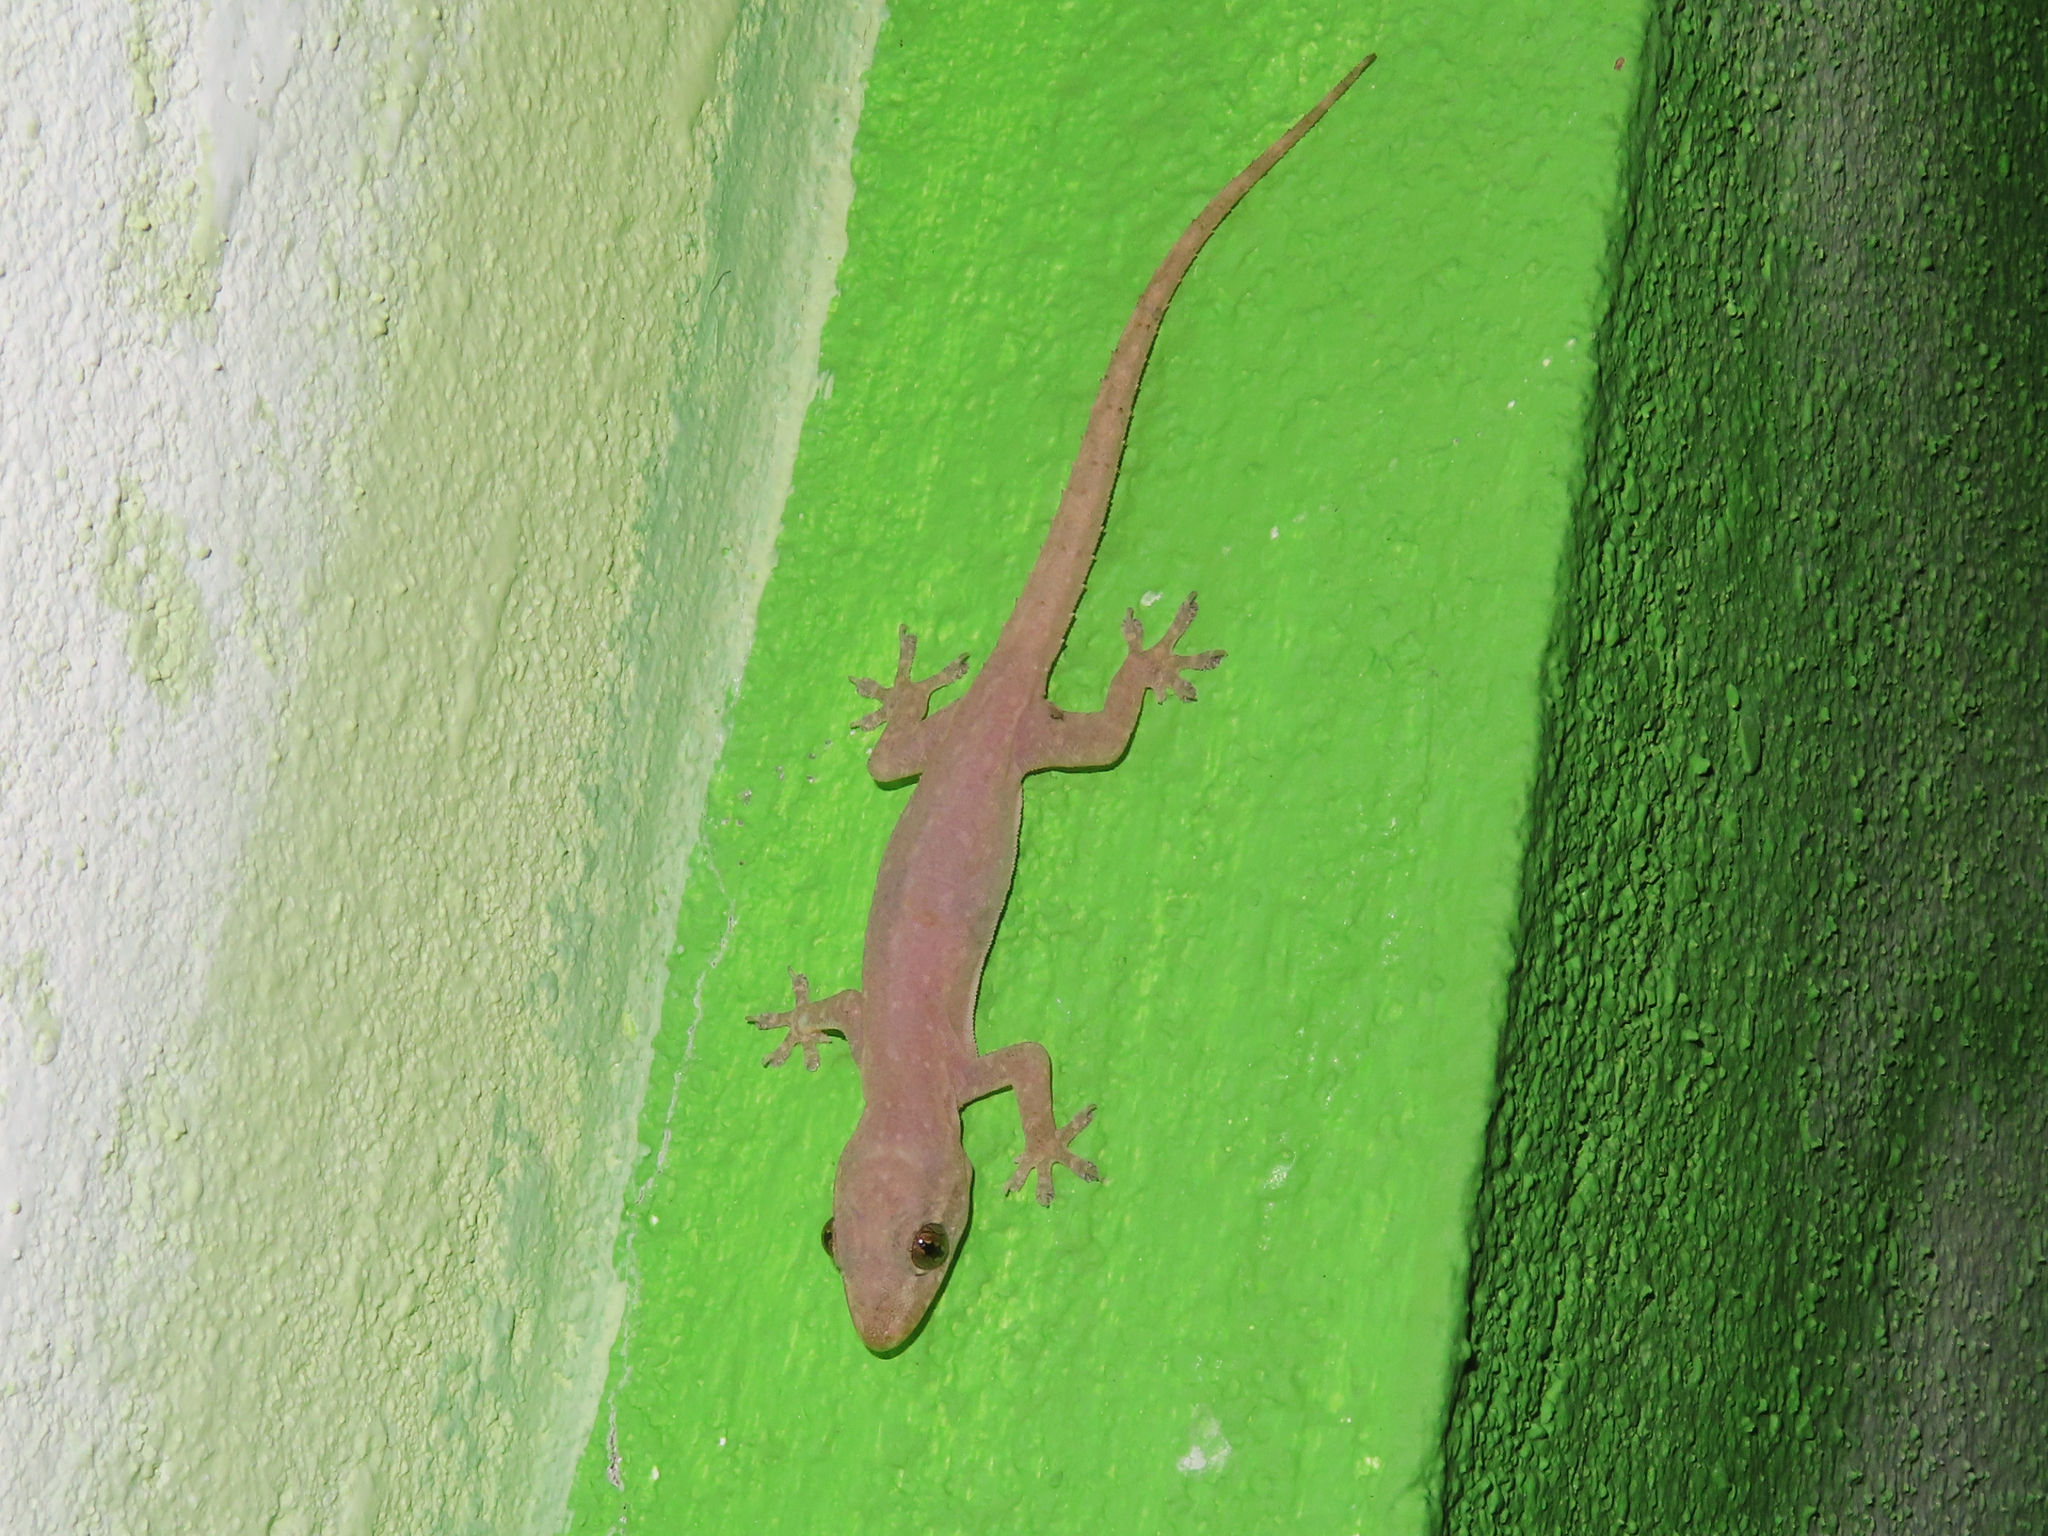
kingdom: Animalia
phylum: Chordata
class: Squamata
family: Gekkonidae
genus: Hemidactylus
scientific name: Hemidactylus frenatus
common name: Common house gecko
